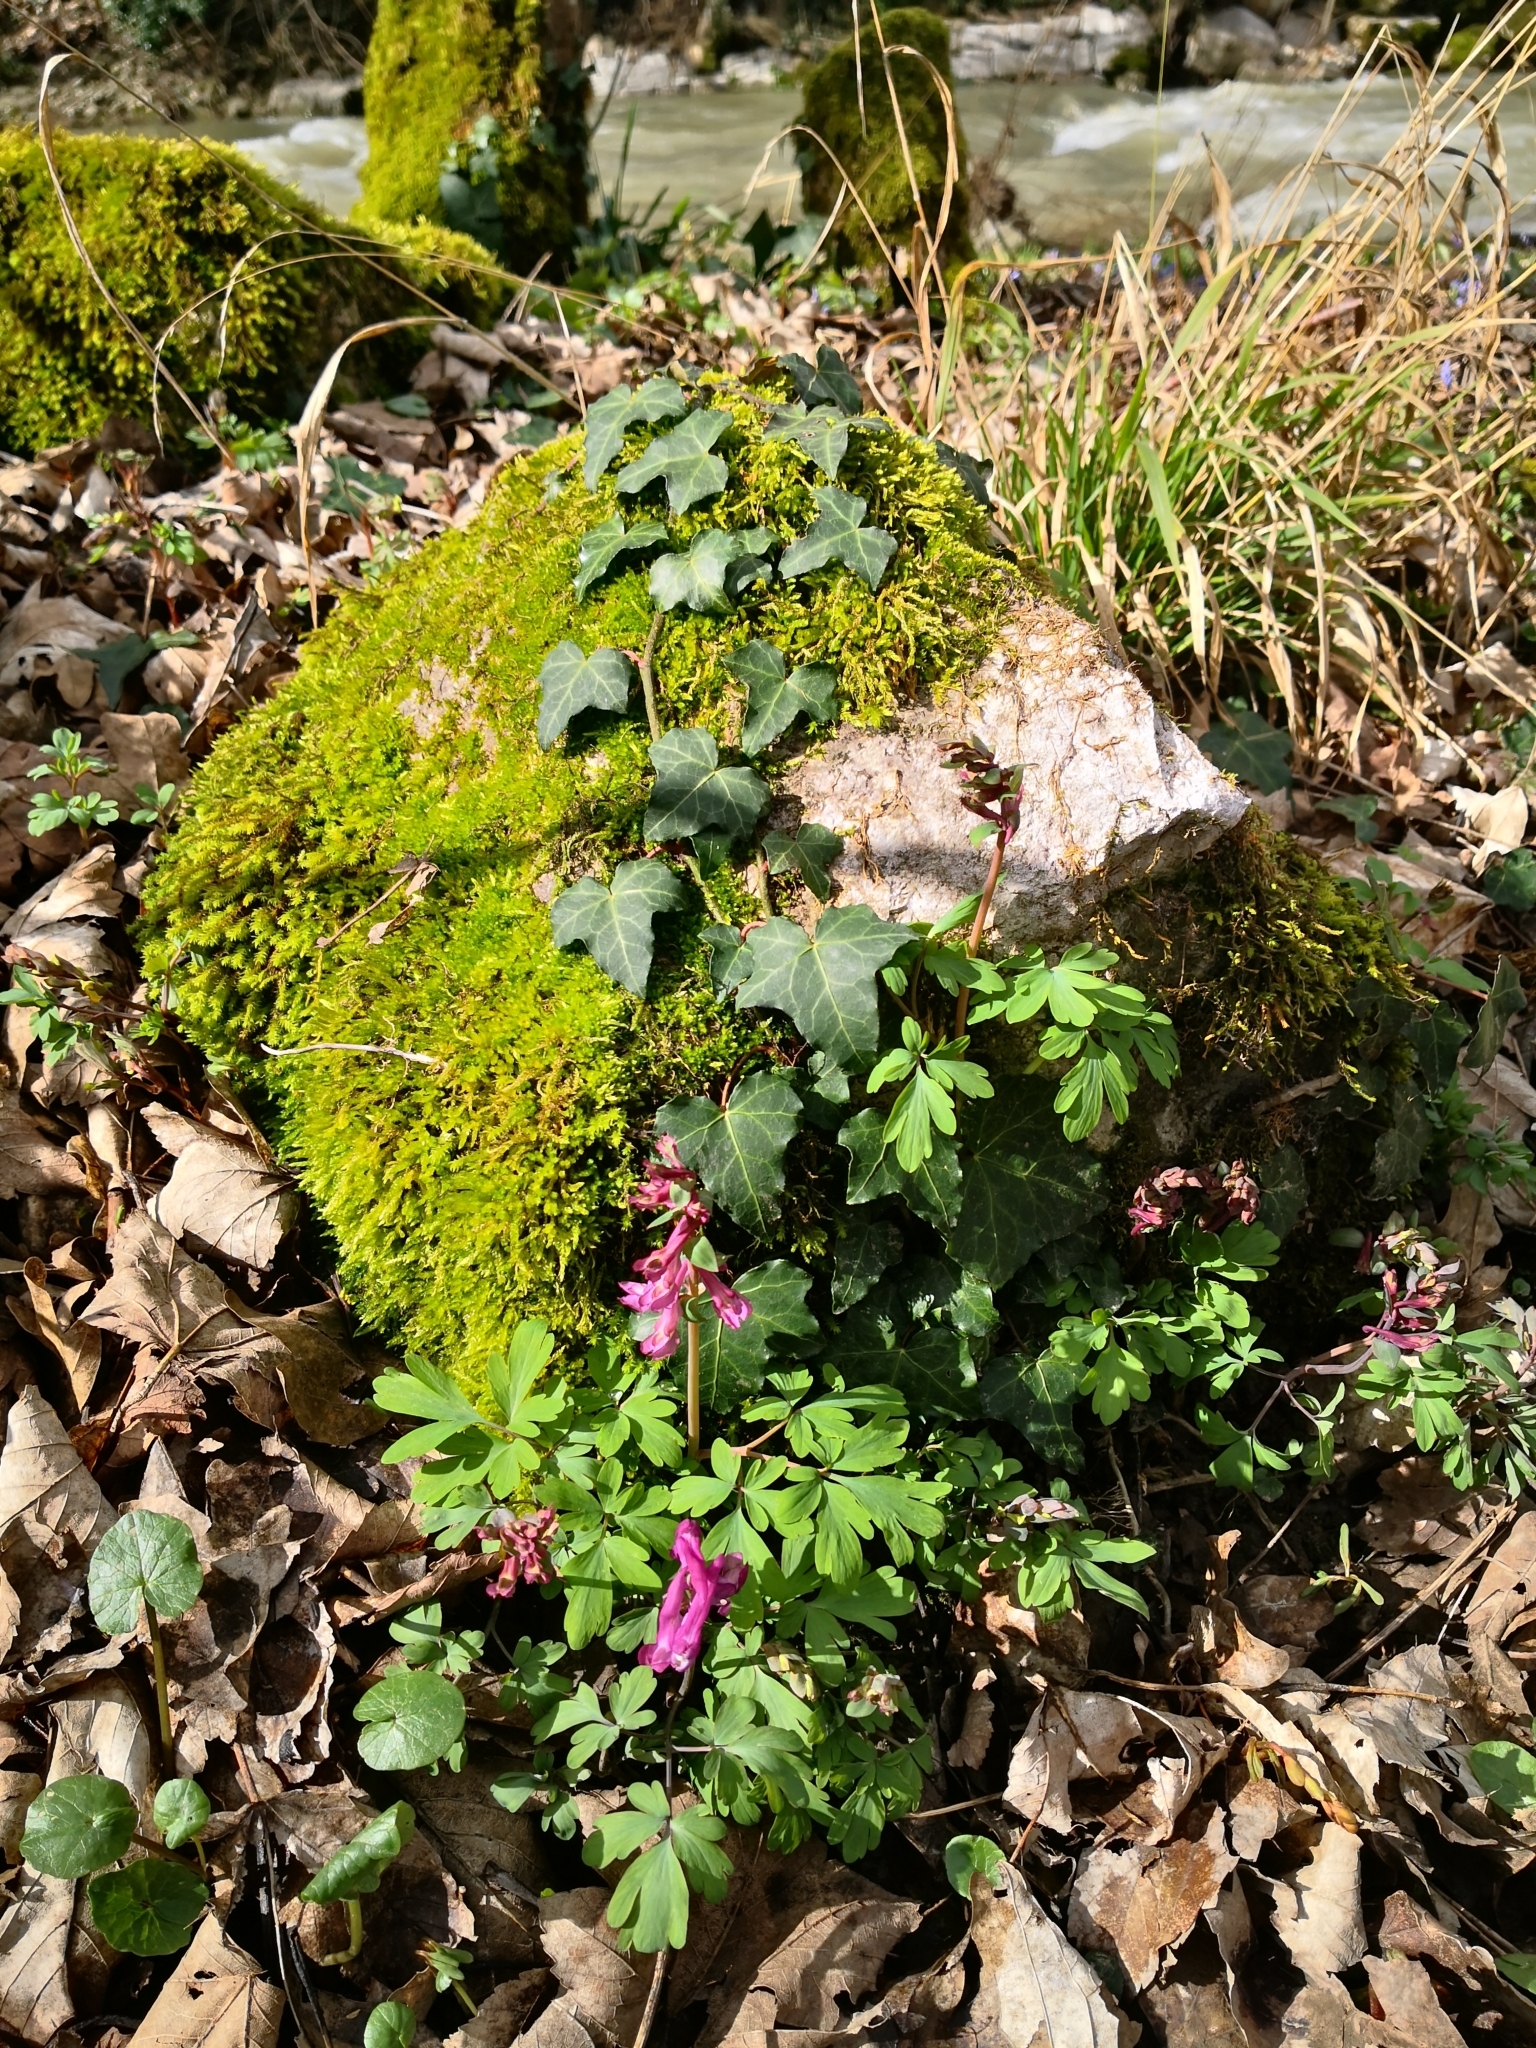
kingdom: Plantae
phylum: Tracheophyta
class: Magnoliopsida
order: Ranunculales
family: Papaveraceae
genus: Corydalis
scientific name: Corydalis cava
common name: Hollowroot
